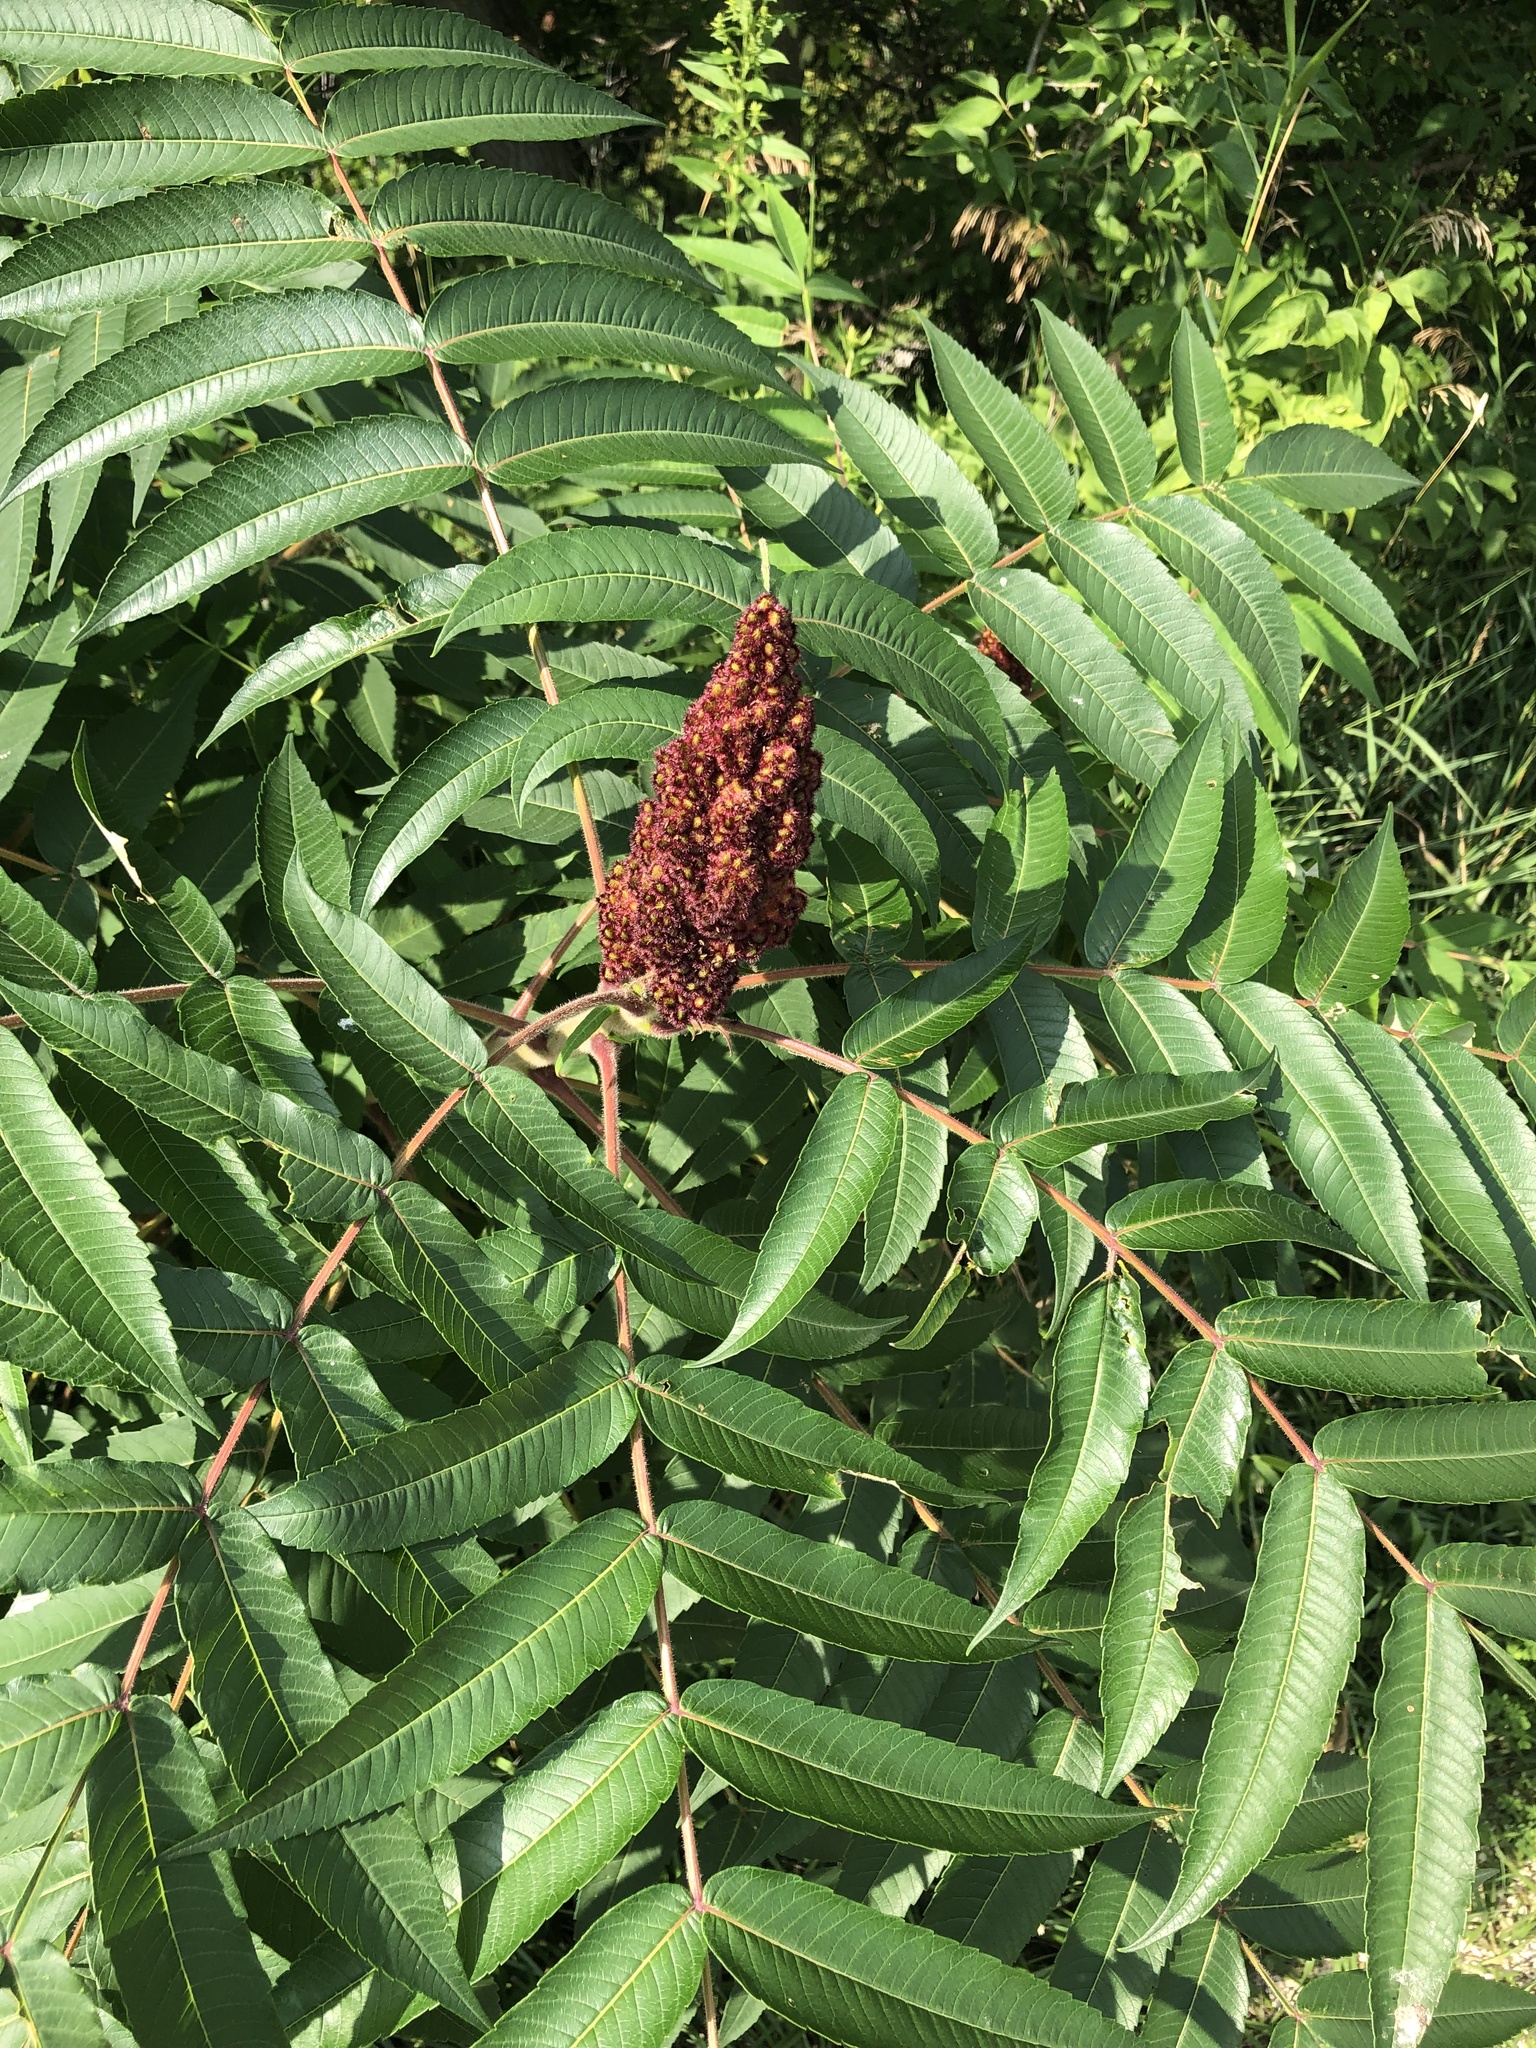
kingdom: Plantae
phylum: Tracheophyta
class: Magnoliopsida
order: Sapindales
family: Anacardiaceae
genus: Rhus
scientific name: Rhus typhina
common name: Staghorn sumac
